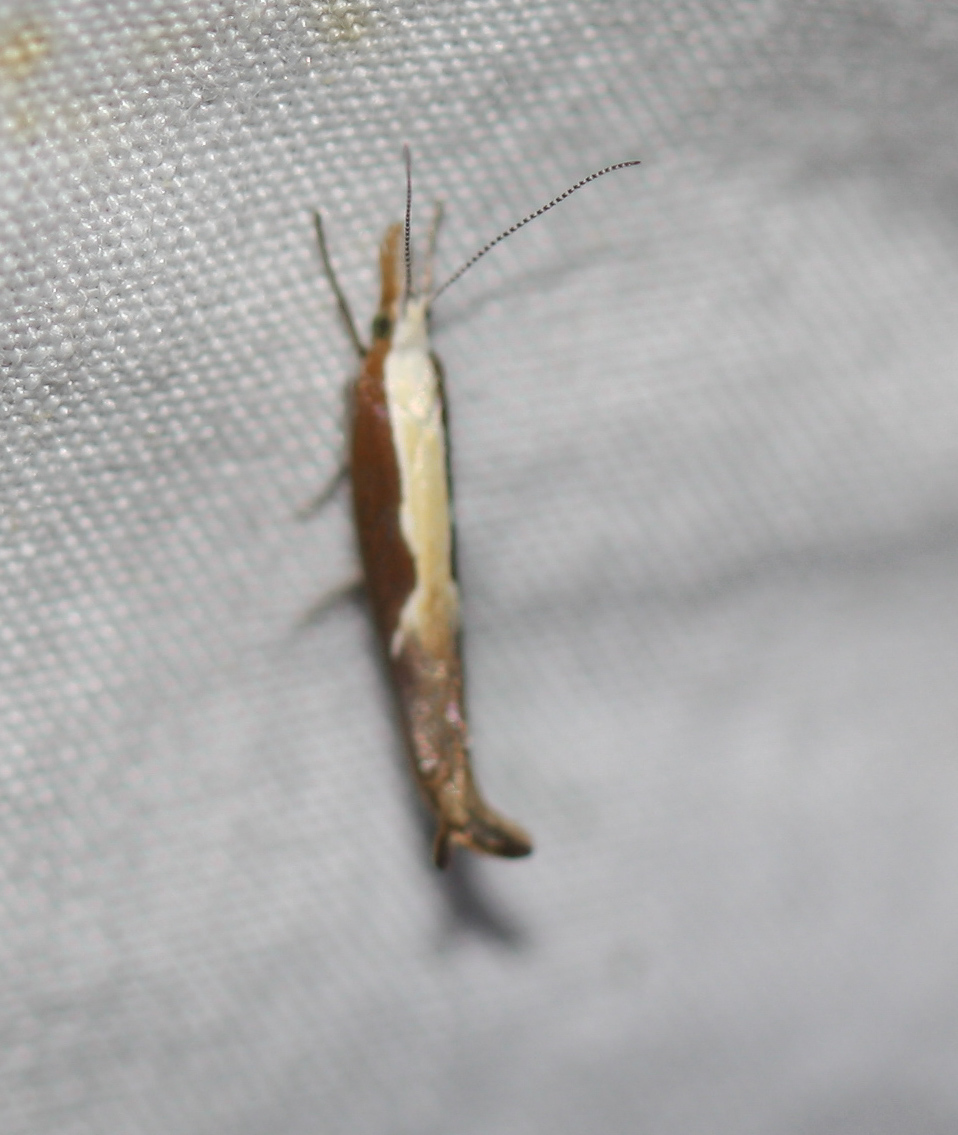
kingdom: Animalia
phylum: Arthropoda
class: Insecta
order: Lepidoptera
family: Ypsolophidae
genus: Ypsolopha
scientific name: Ypsolopha dentella
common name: Honeysuckle moth
